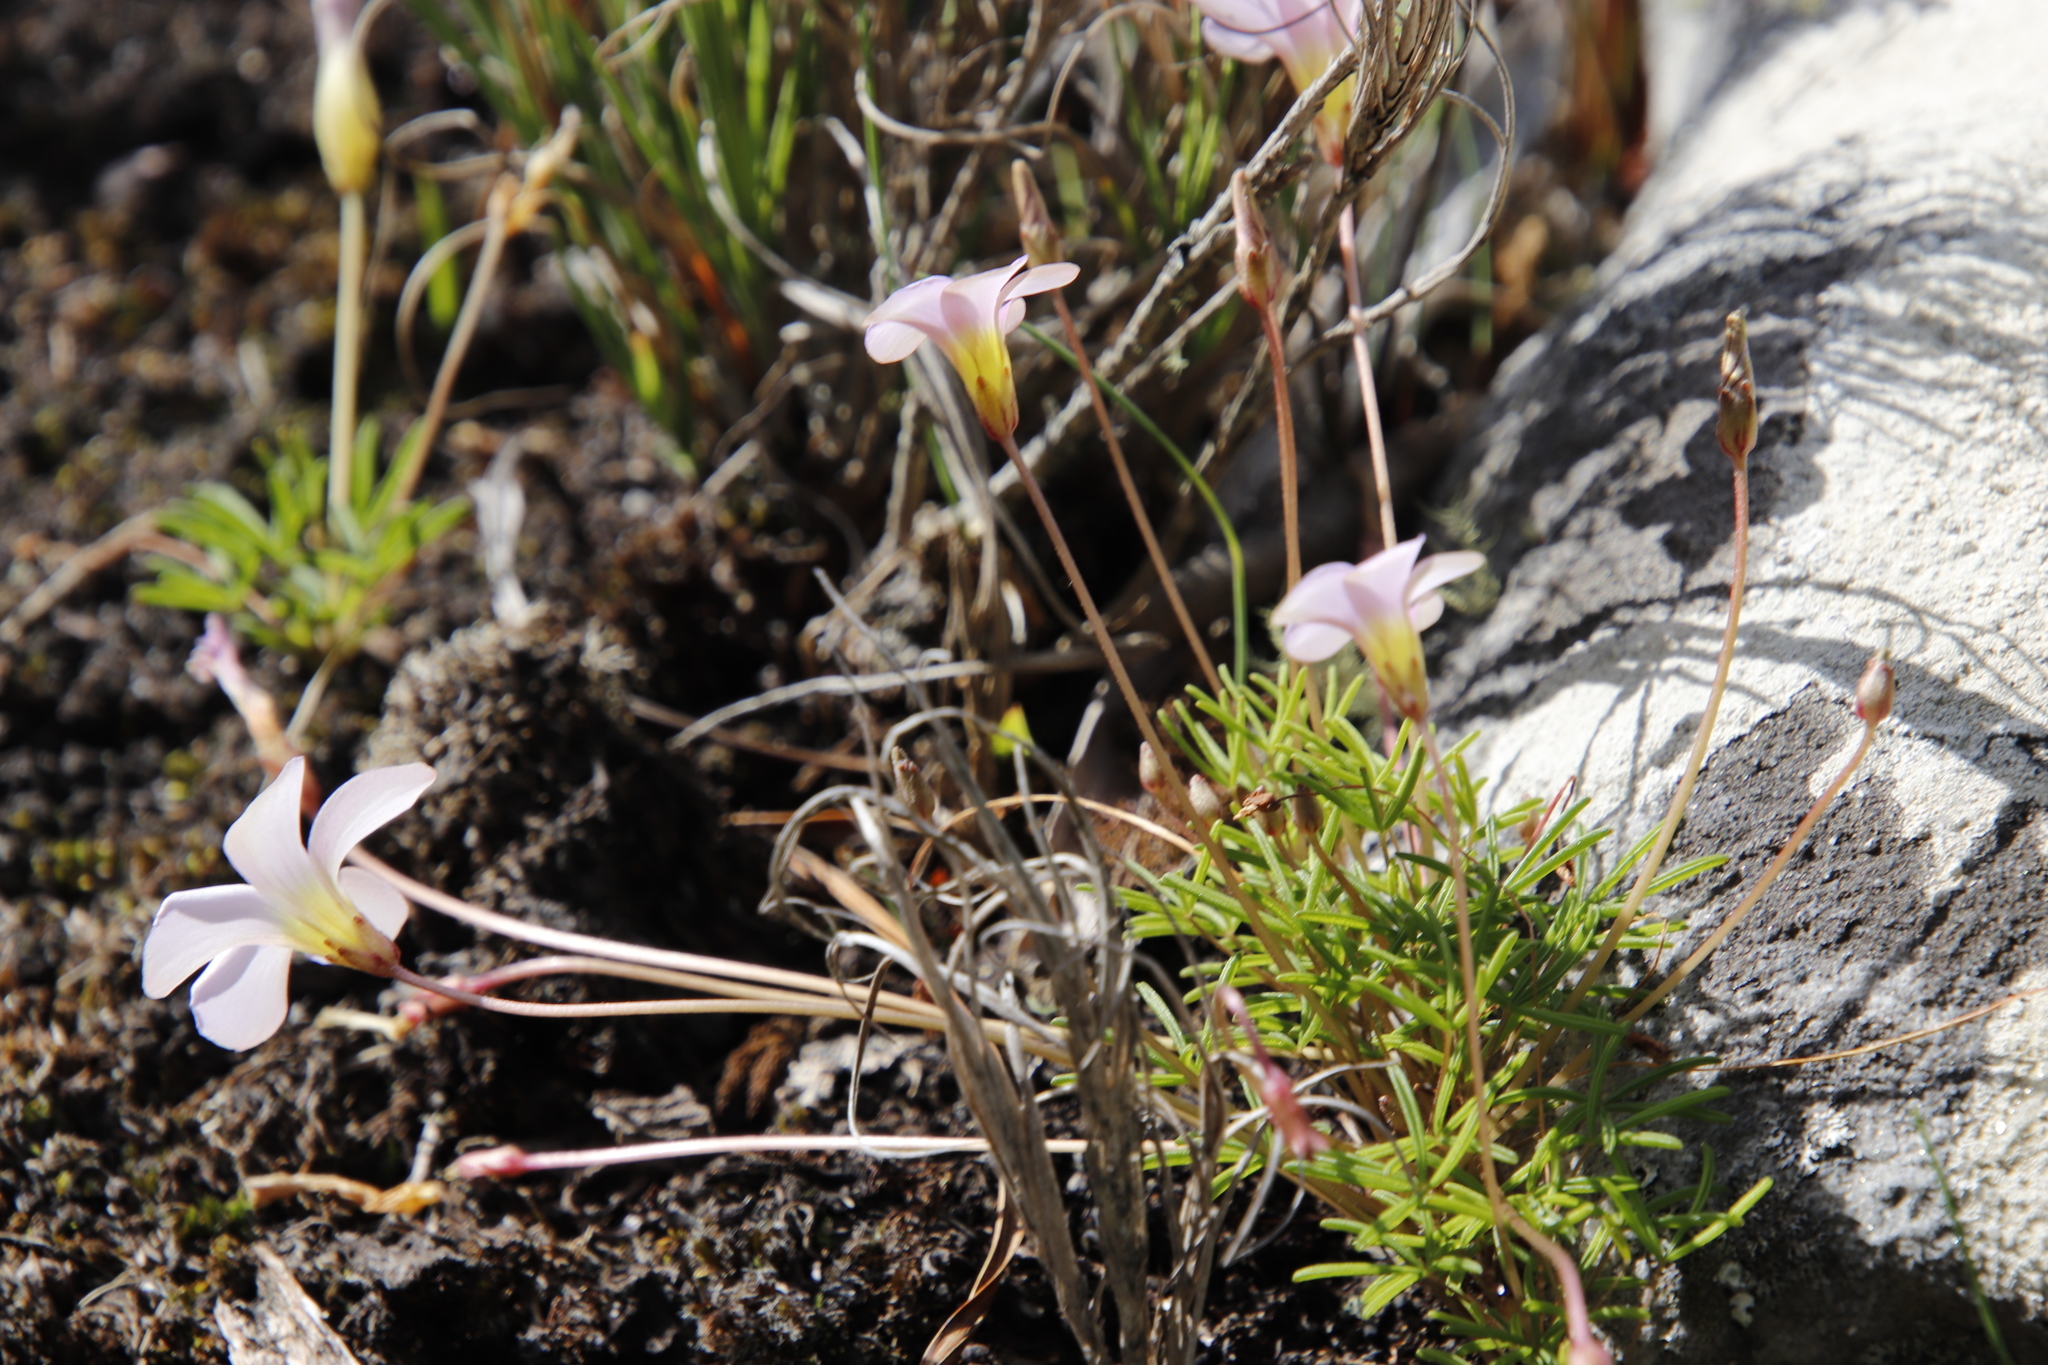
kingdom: Plantae
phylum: Tracheophyta
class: Magnoliopsida
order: Oxalidales
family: Oxalidaceae
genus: Oxalis
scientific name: Oxalis polyphylla
